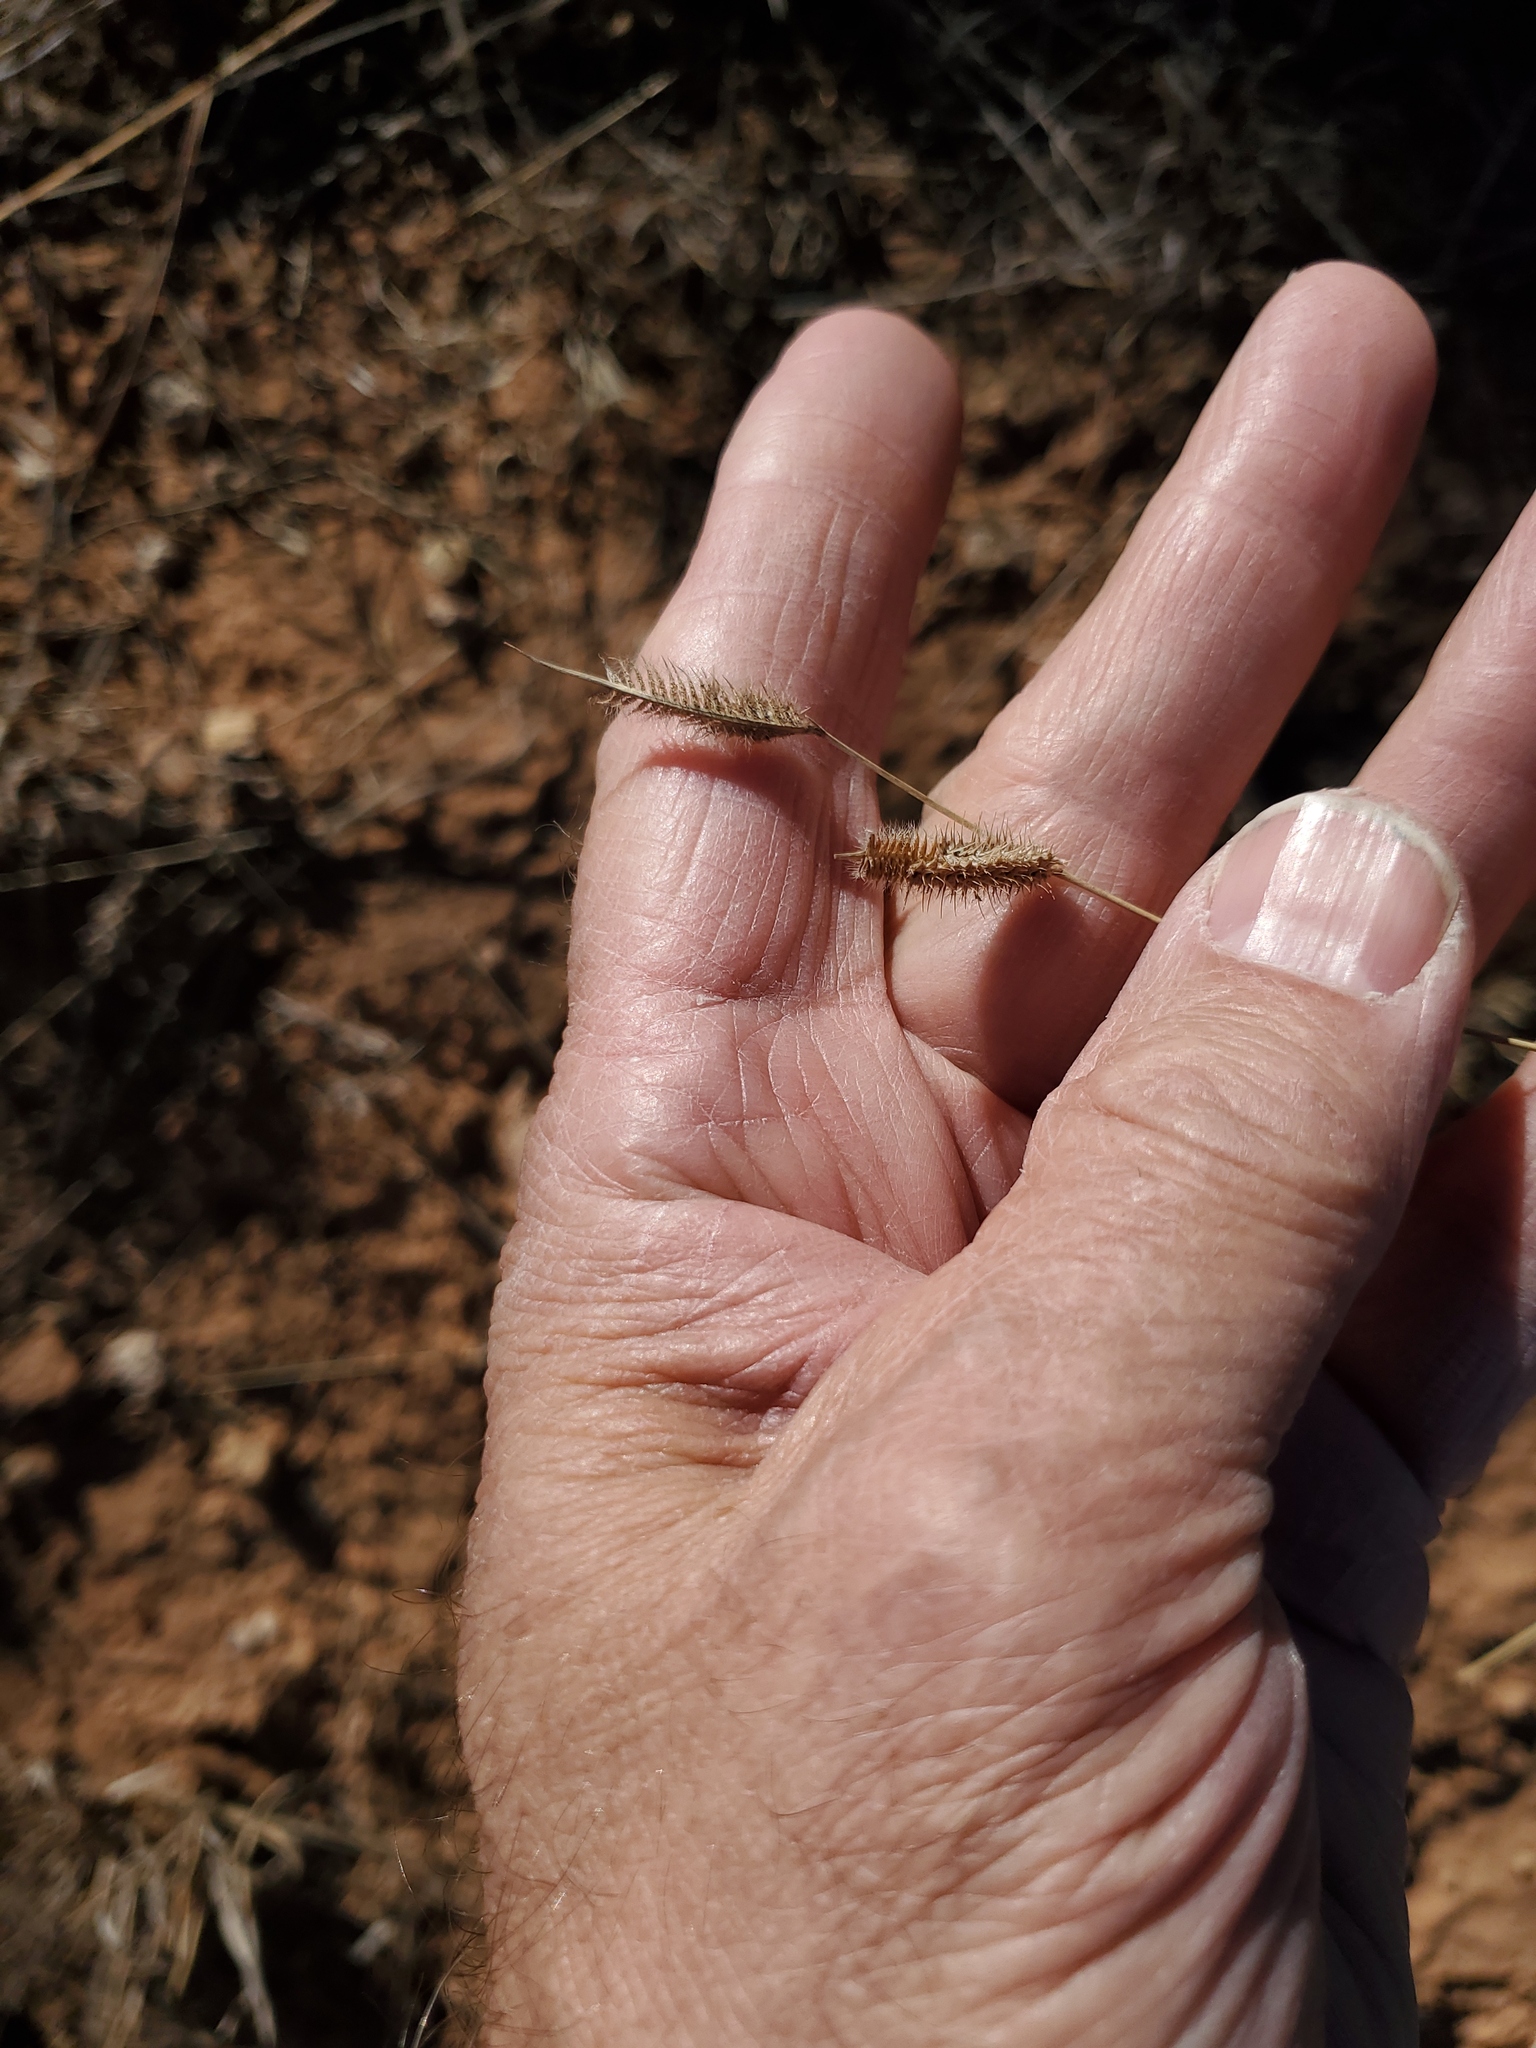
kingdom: Plantae
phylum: Tracheophyta
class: Liliopsida
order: Poales
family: Poaceae
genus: Bouteloua
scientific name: Bouteloua hirsuta
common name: Hairy grama
